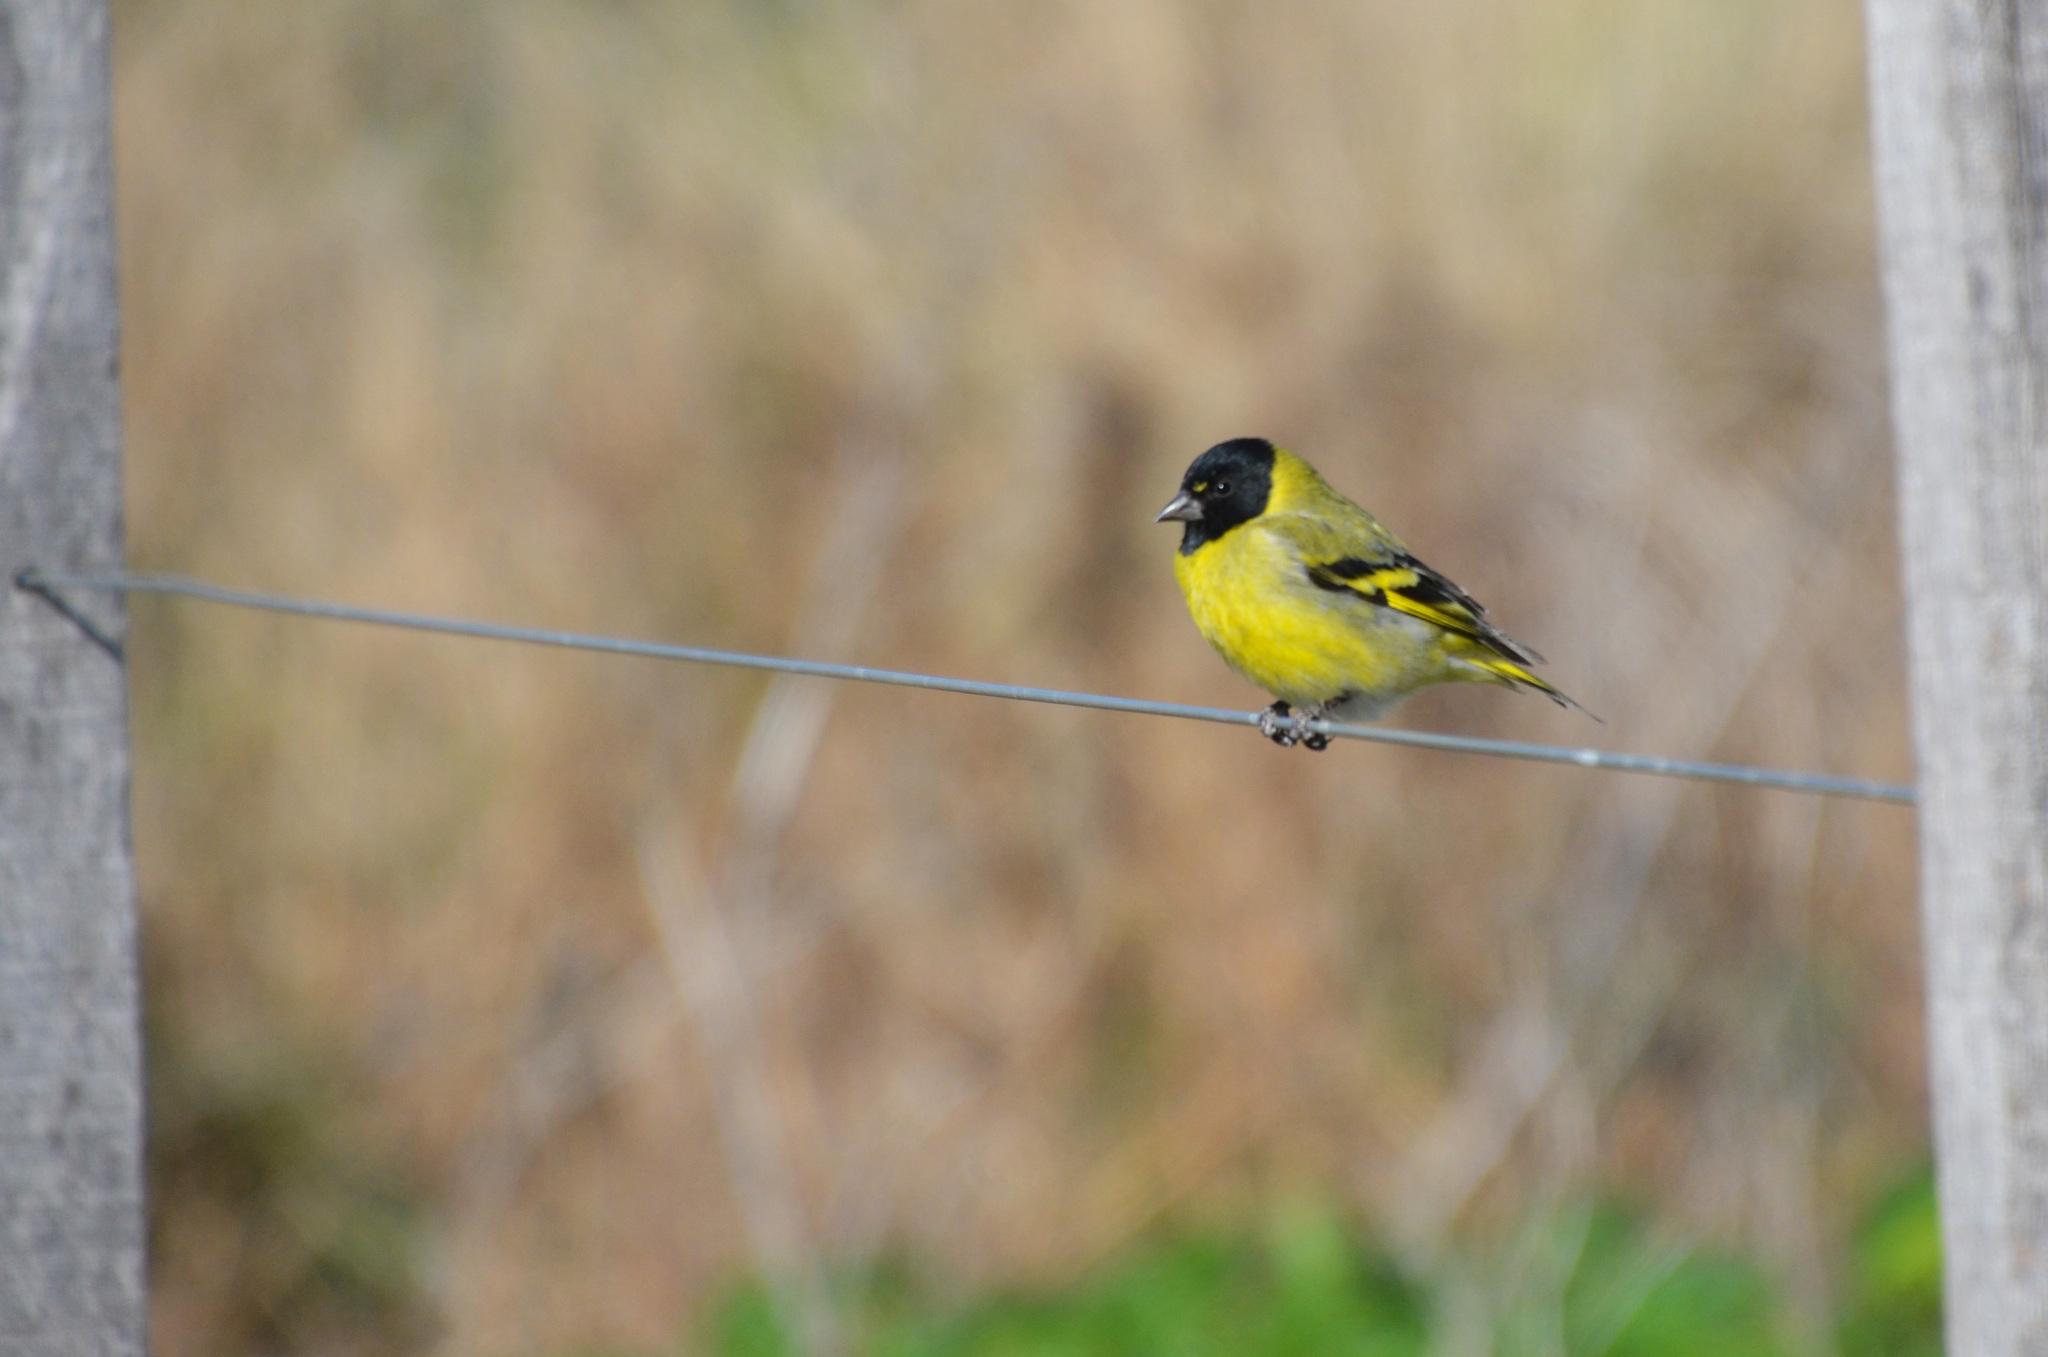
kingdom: Animalia
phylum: Chordata
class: Aves
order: Passeriformes
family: Fringillidae
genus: Spinus
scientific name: Spinus magellanicus
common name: Hooded siskin
